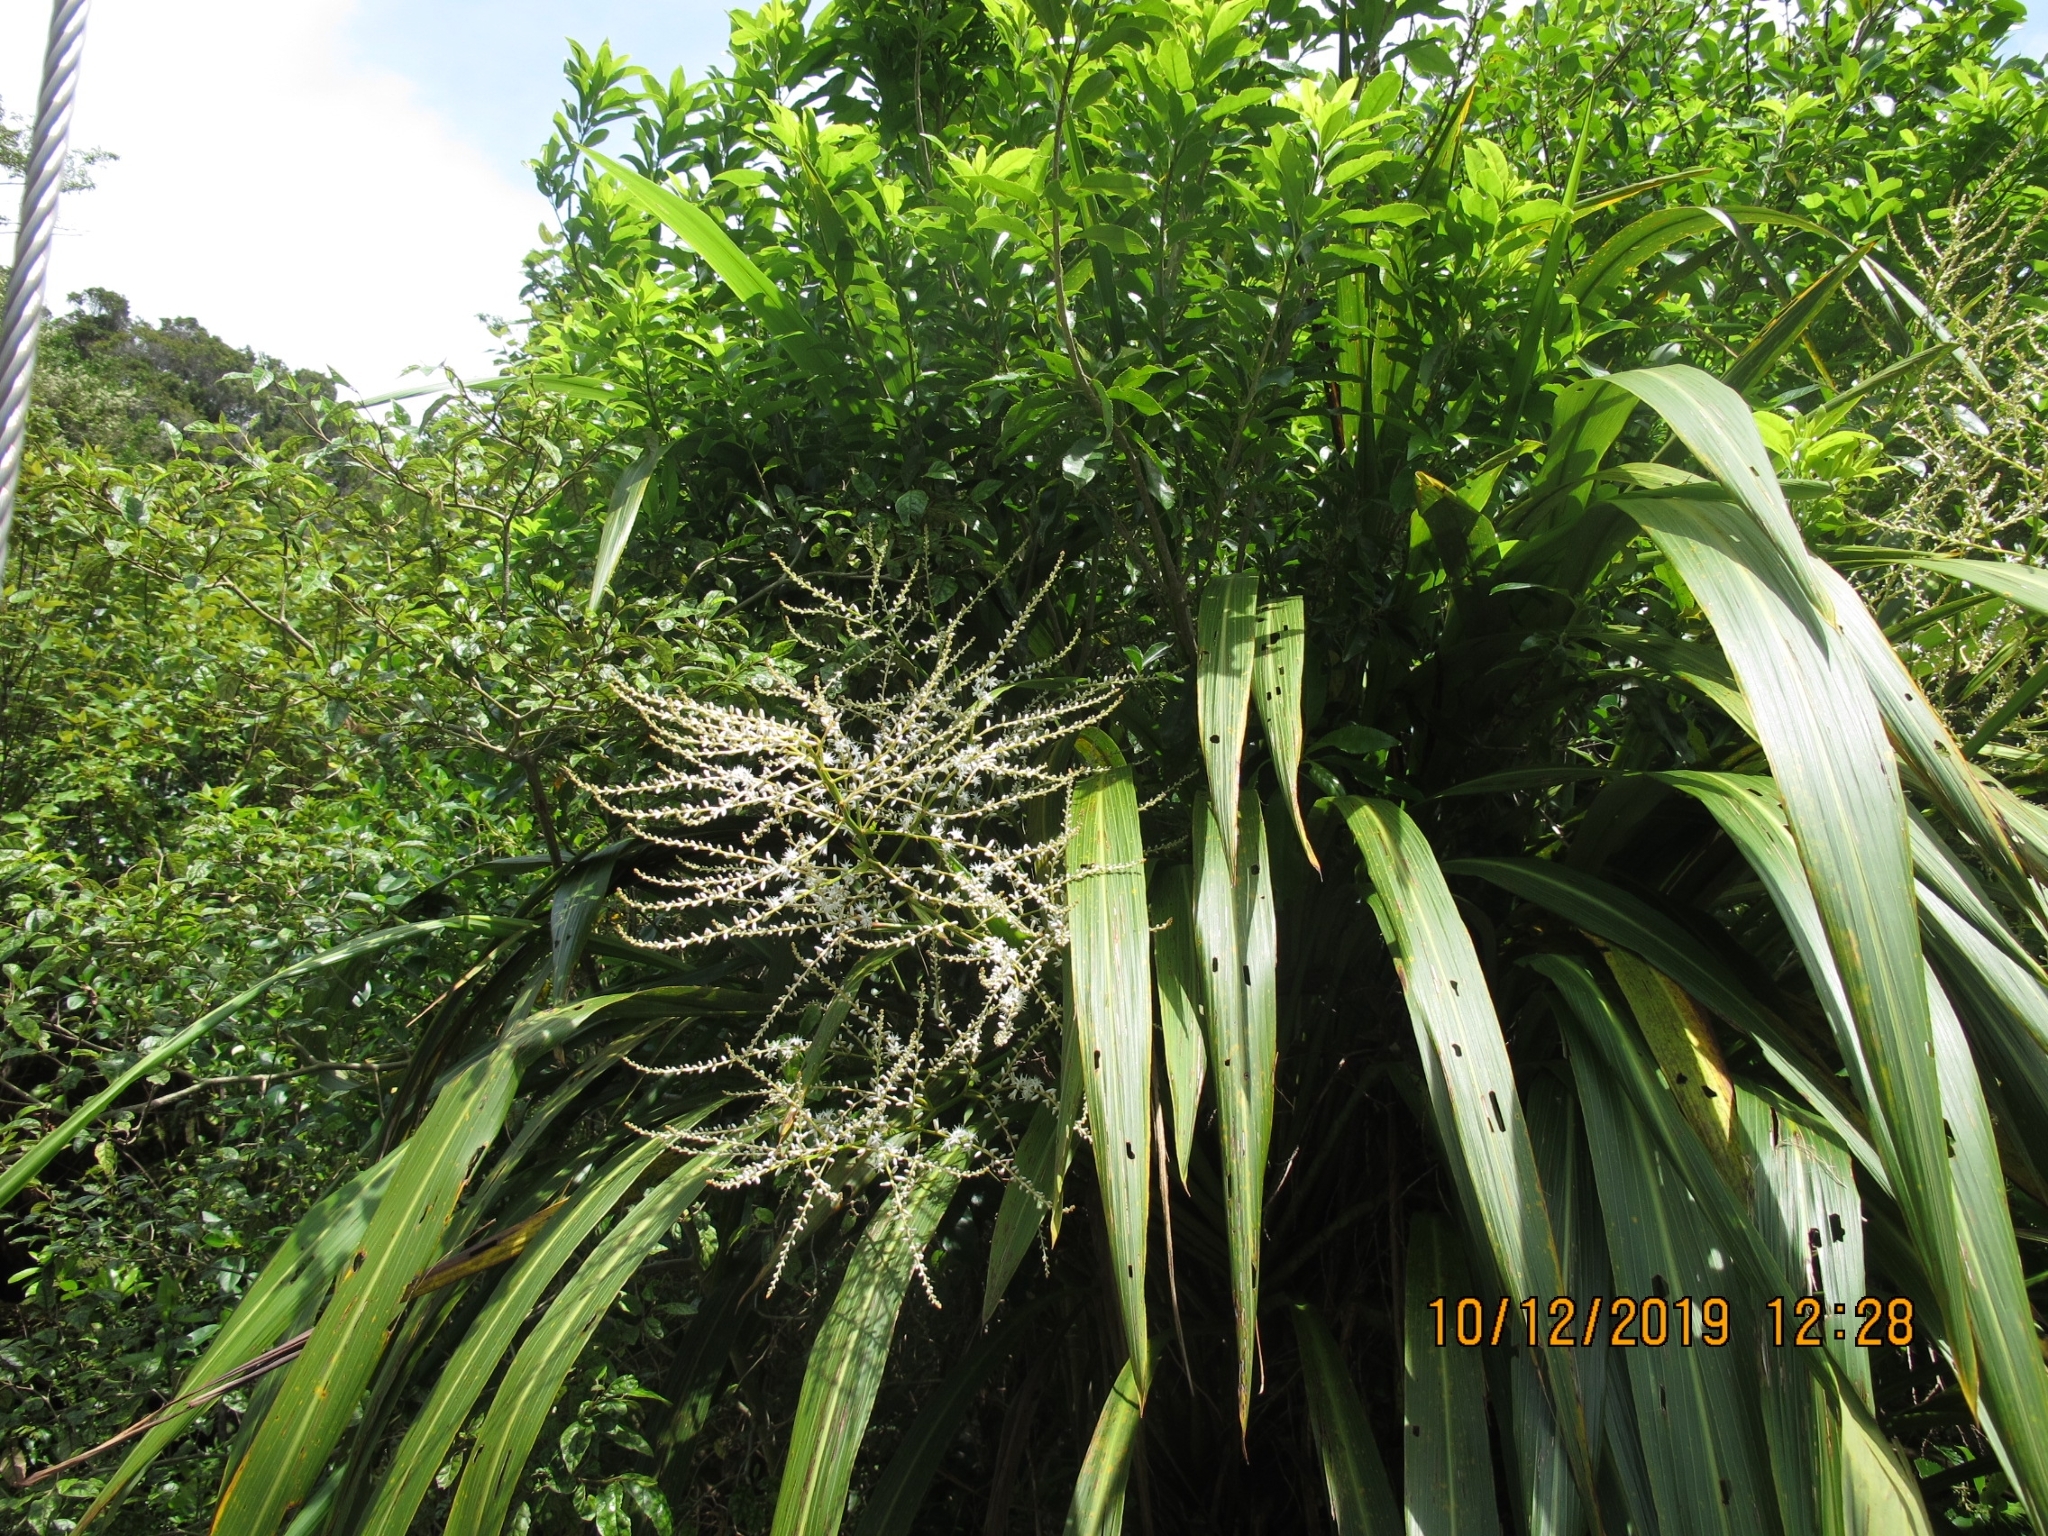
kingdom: Plantae
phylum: Tracheophyta
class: Liliopsida
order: Asparagales
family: Asparagaceae
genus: Cordyline
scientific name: Cordyline banksii
